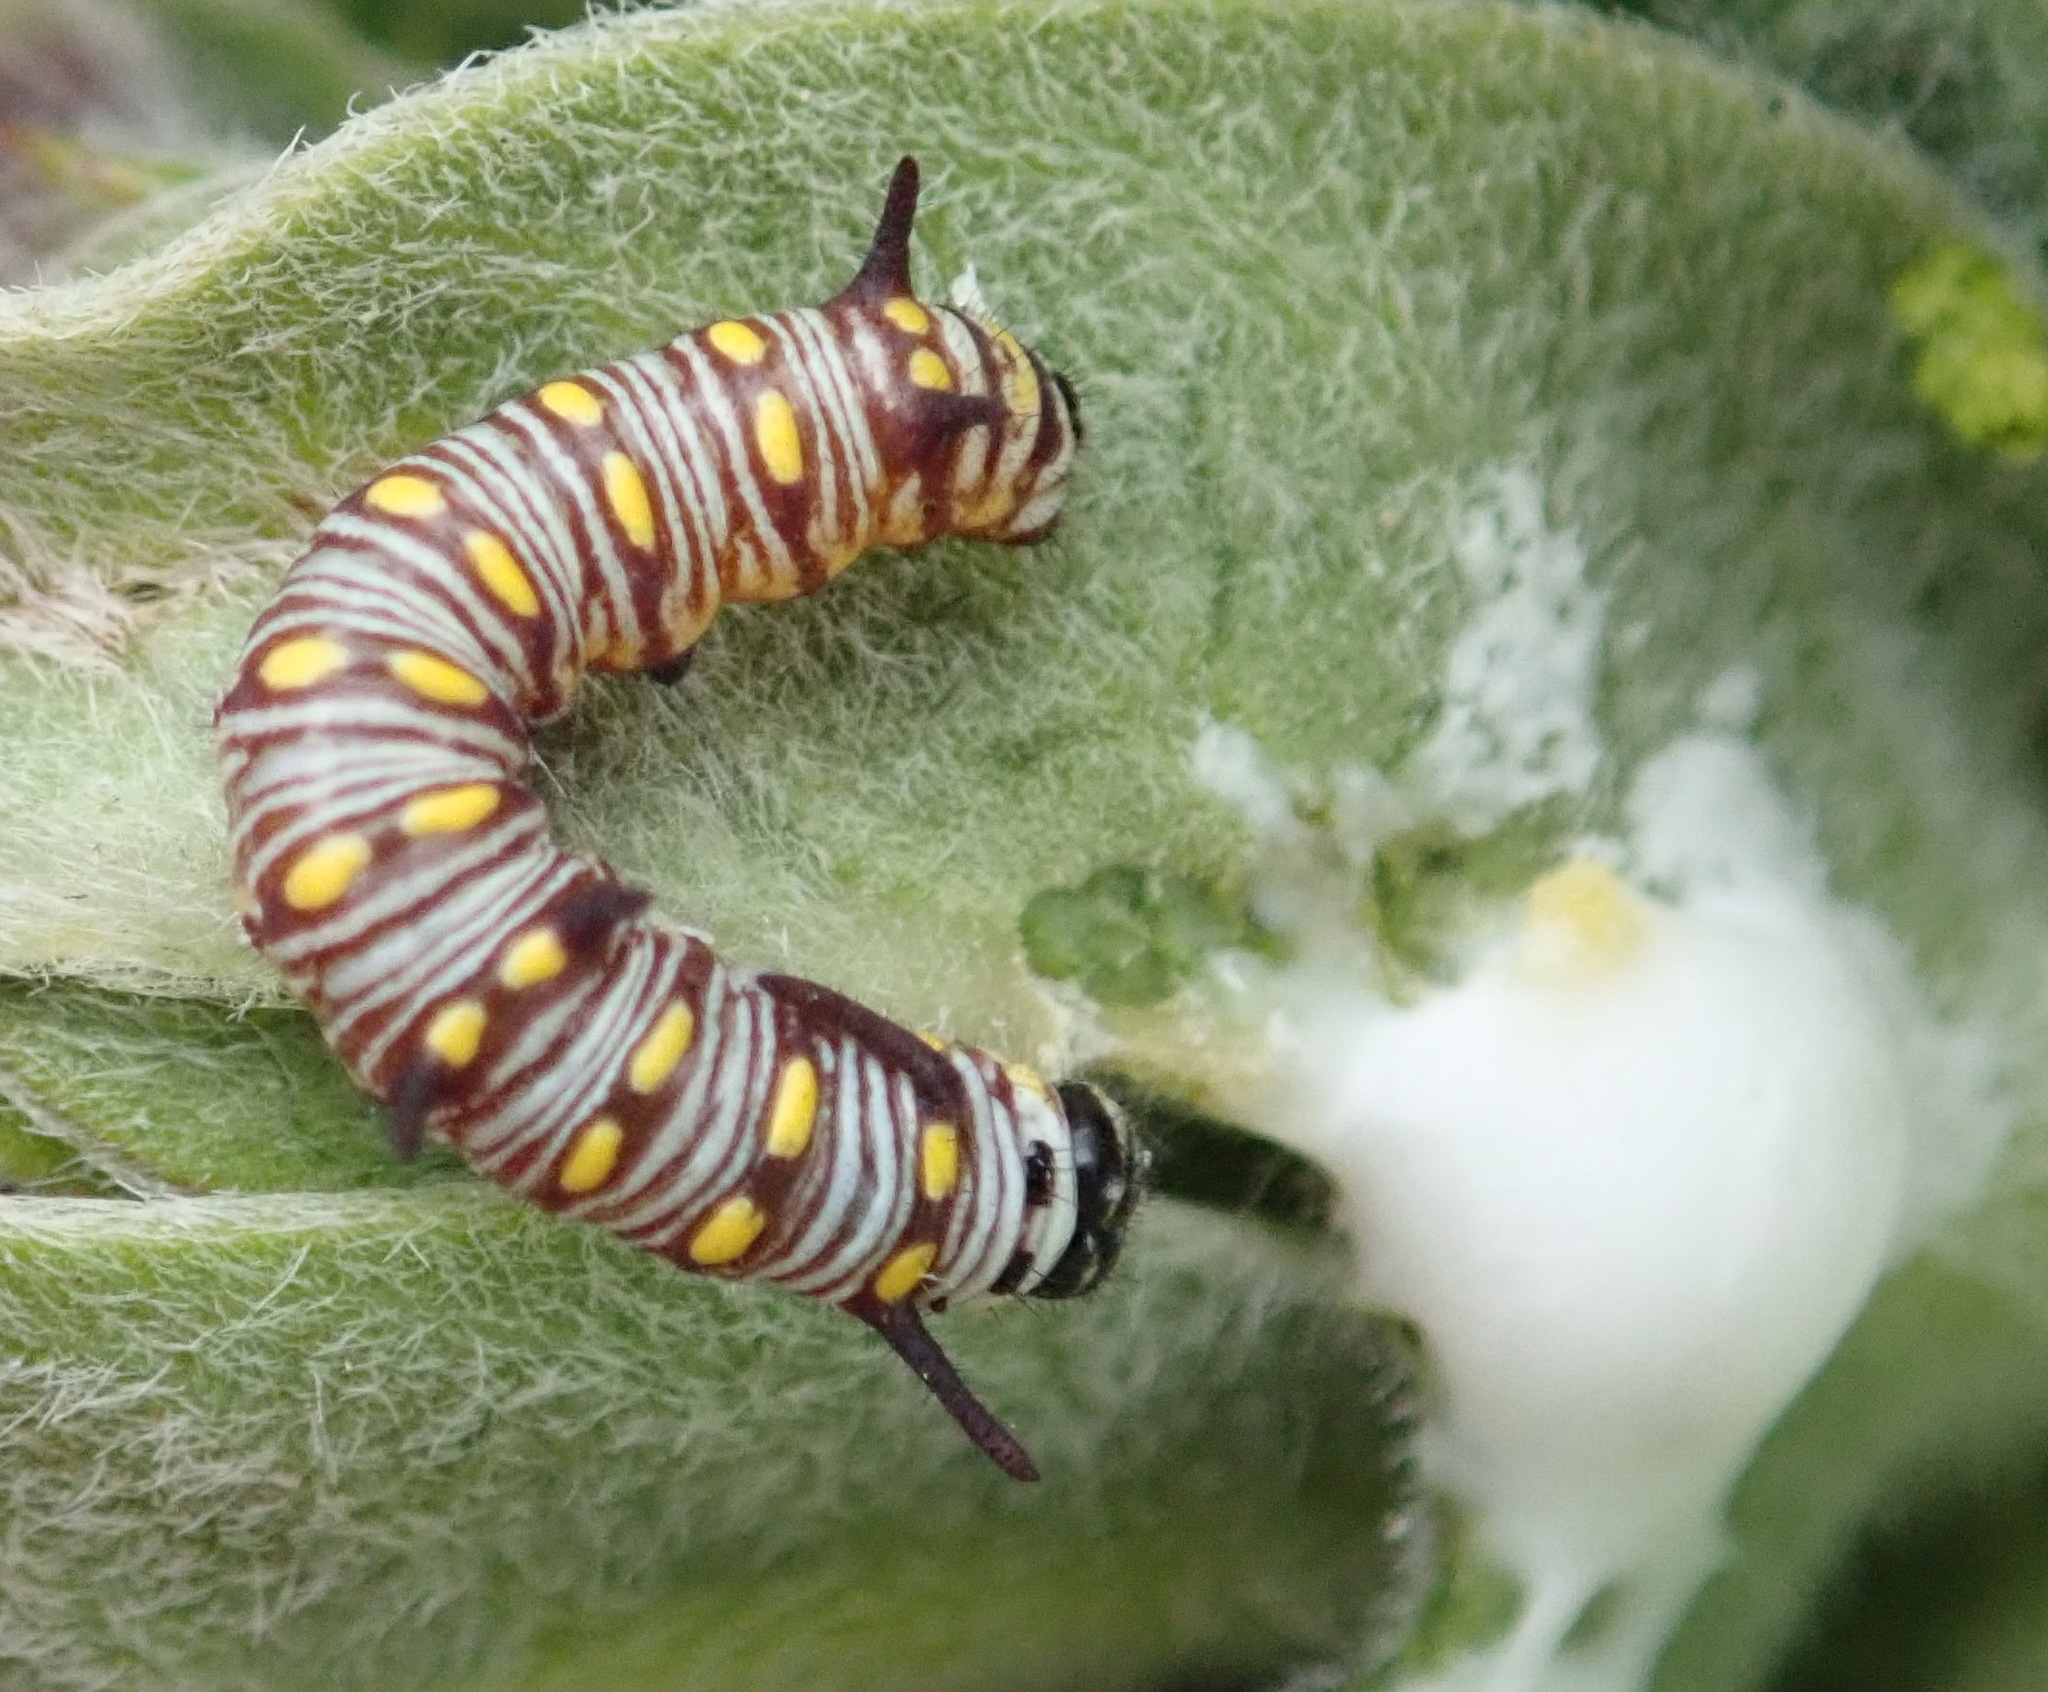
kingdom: Animalia
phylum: Arthropoda
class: Insecta
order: Lepidoptera
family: Nymphalidae
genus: Danaus
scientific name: Danaus chrysippus
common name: Plain tiger
